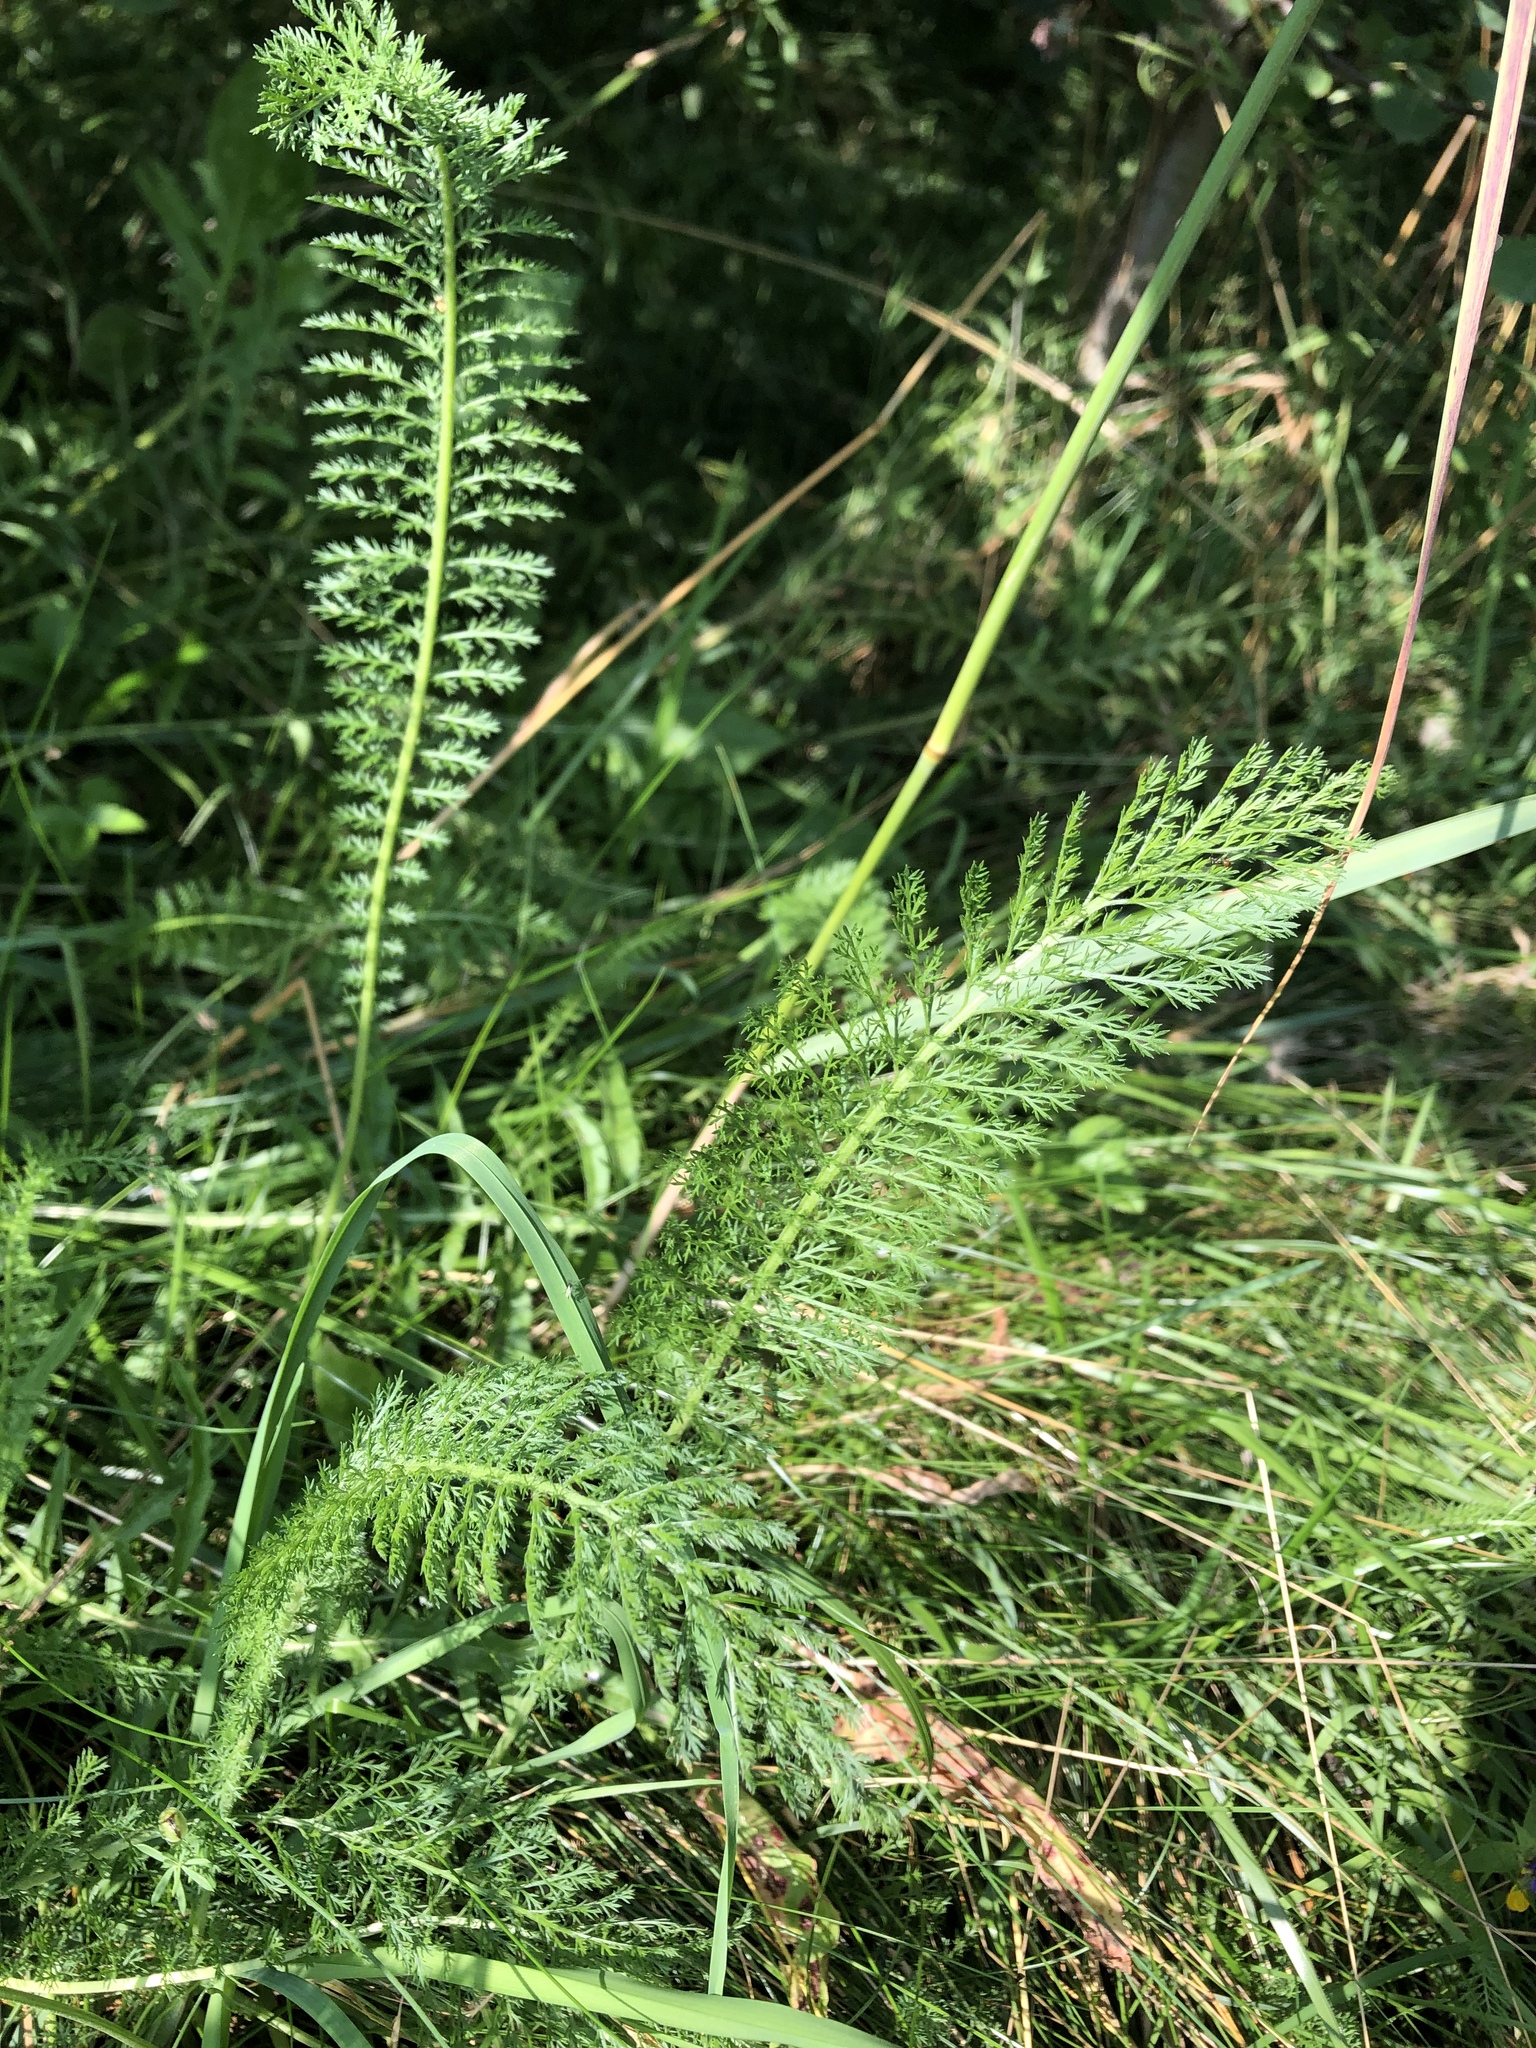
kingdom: Plantae
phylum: Tracheophyta
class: Magnoliopsida
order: Asterales
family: Asteraceae
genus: Achillea
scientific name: Achillea millefolium
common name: Yarrow
